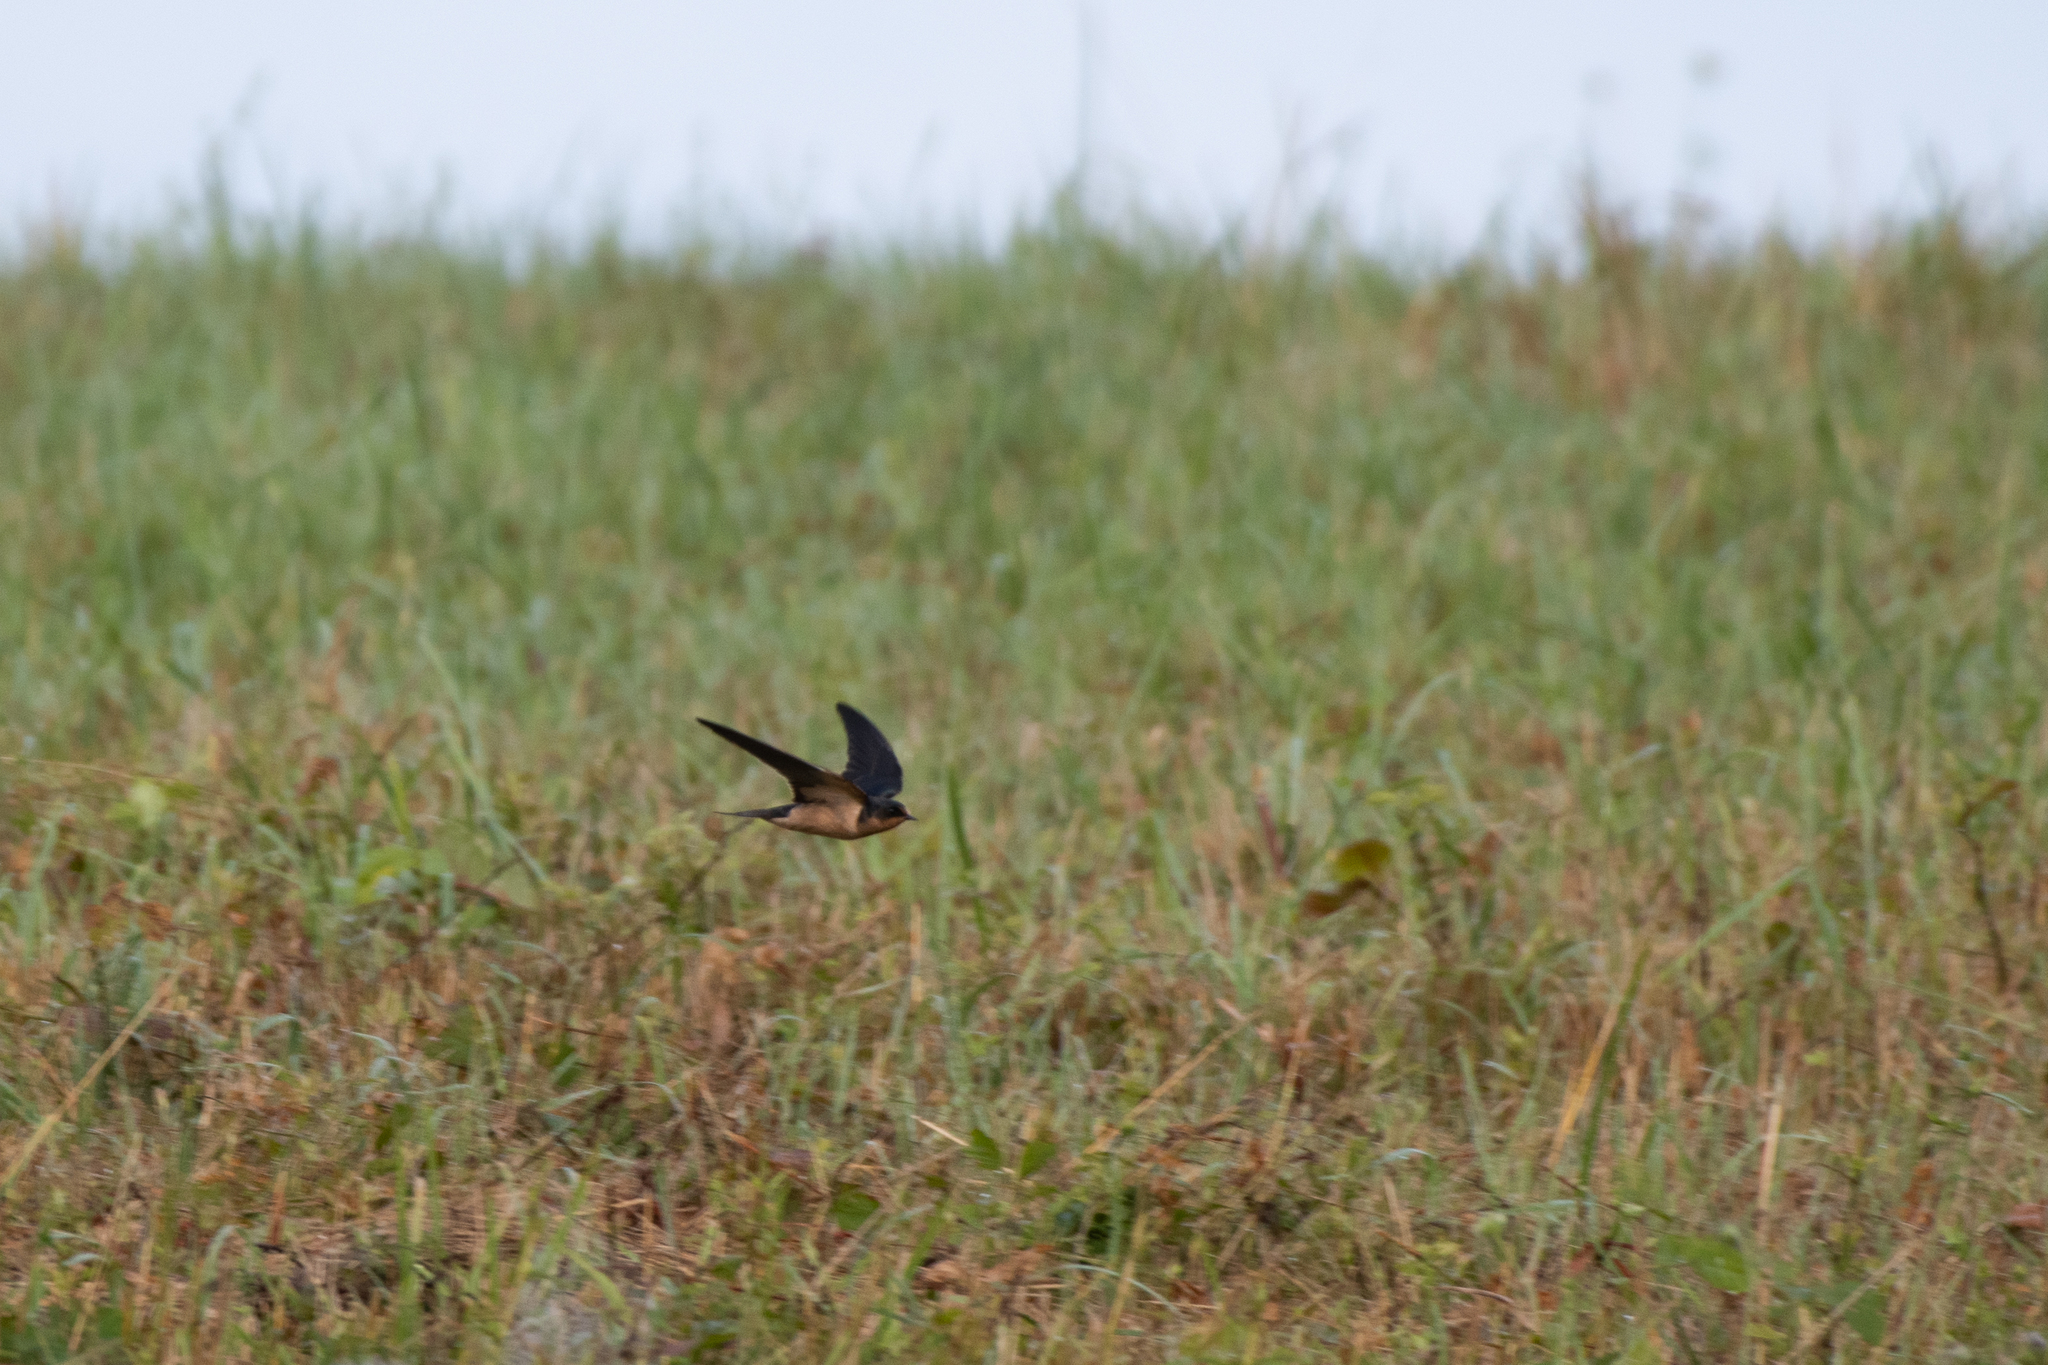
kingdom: Animalia
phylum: Chordata
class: Aves
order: Passeriformes
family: Hirundinidae
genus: Hirundo
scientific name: Hirundo rustica
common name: Barn swallow
